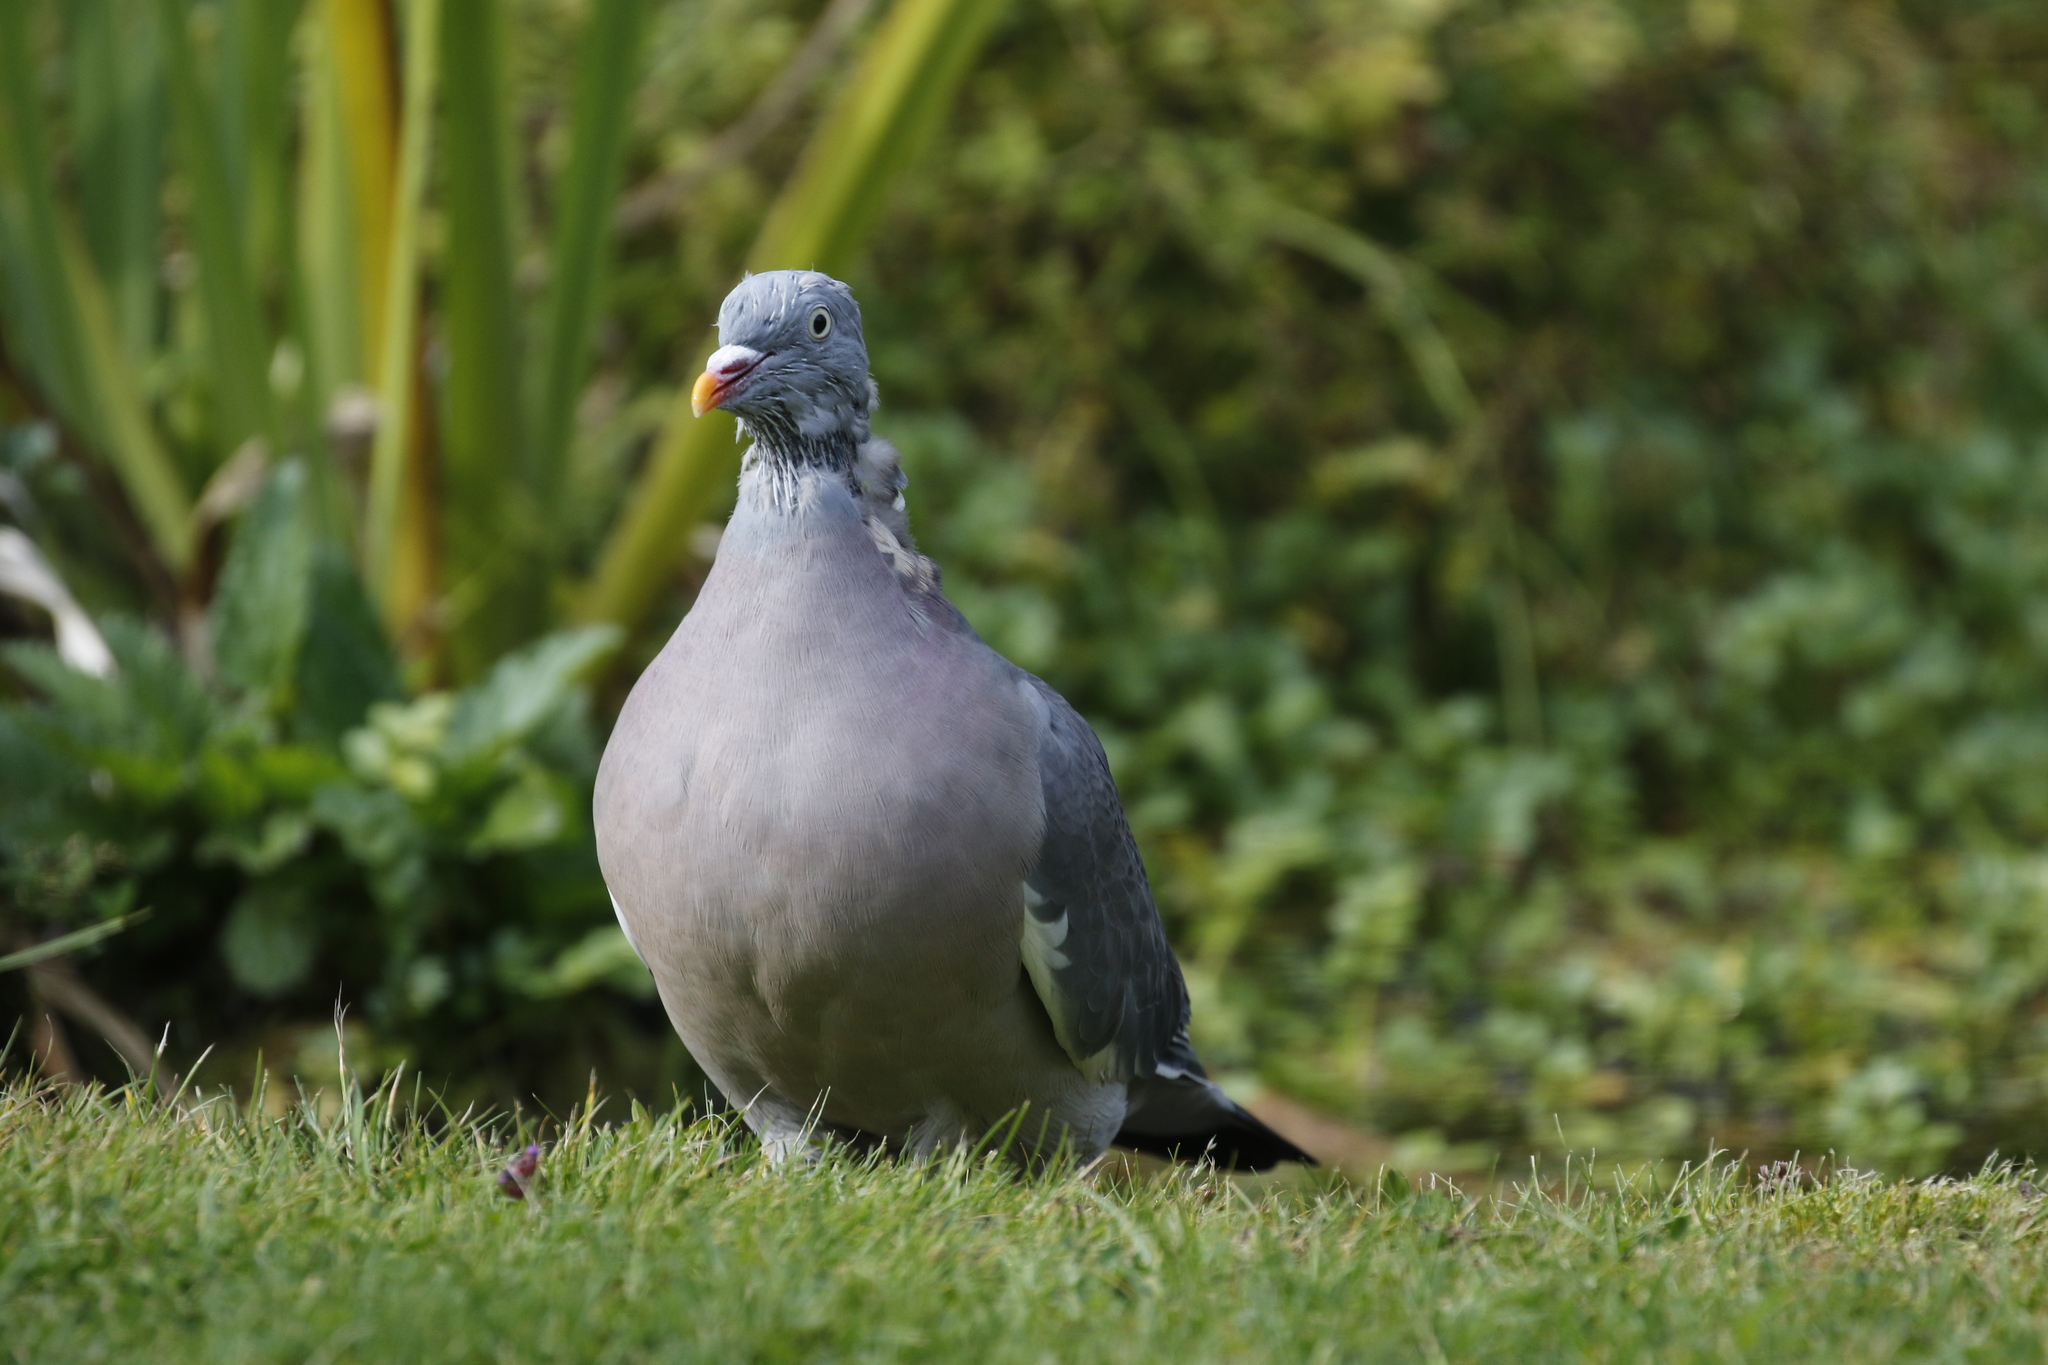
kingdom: Animalia
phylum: Chordata
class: Aves
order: Columbiformes
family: Columbidae
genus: Columba
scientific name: Columba palumbus
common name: Common wood pigeon
